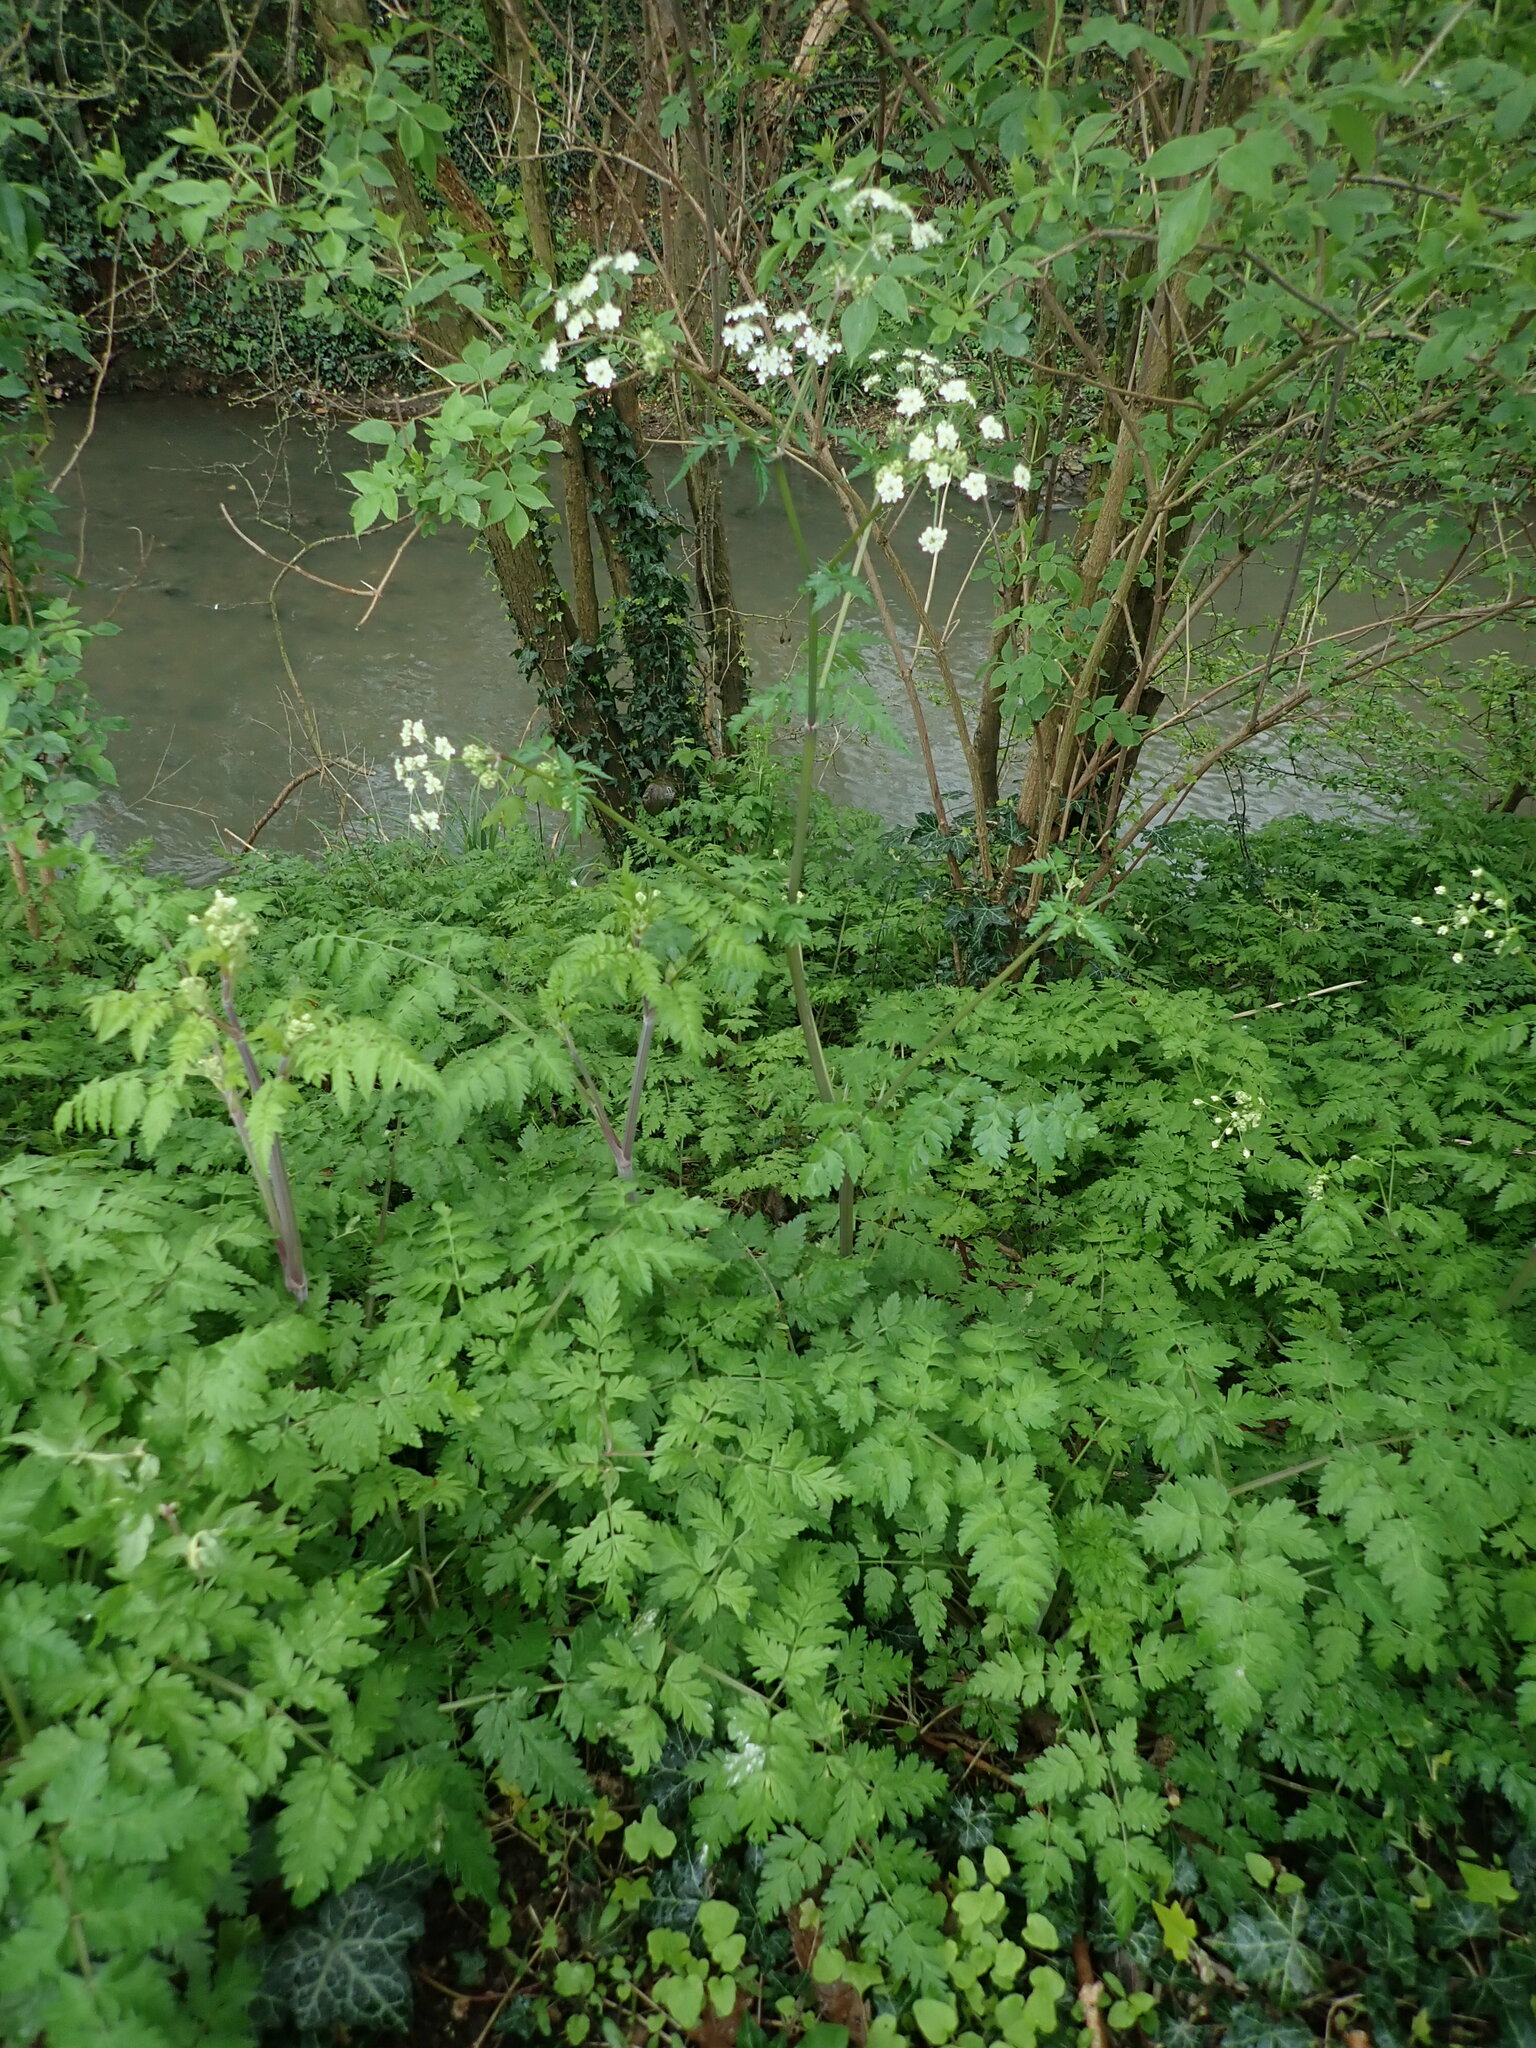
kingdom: Plantae
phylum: Tracheophyta
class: Magnoliopsida
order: Apiales
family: Apiaceae
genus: Anthriscus
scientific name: Anthriscus sylvestris
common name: Cow parsley
